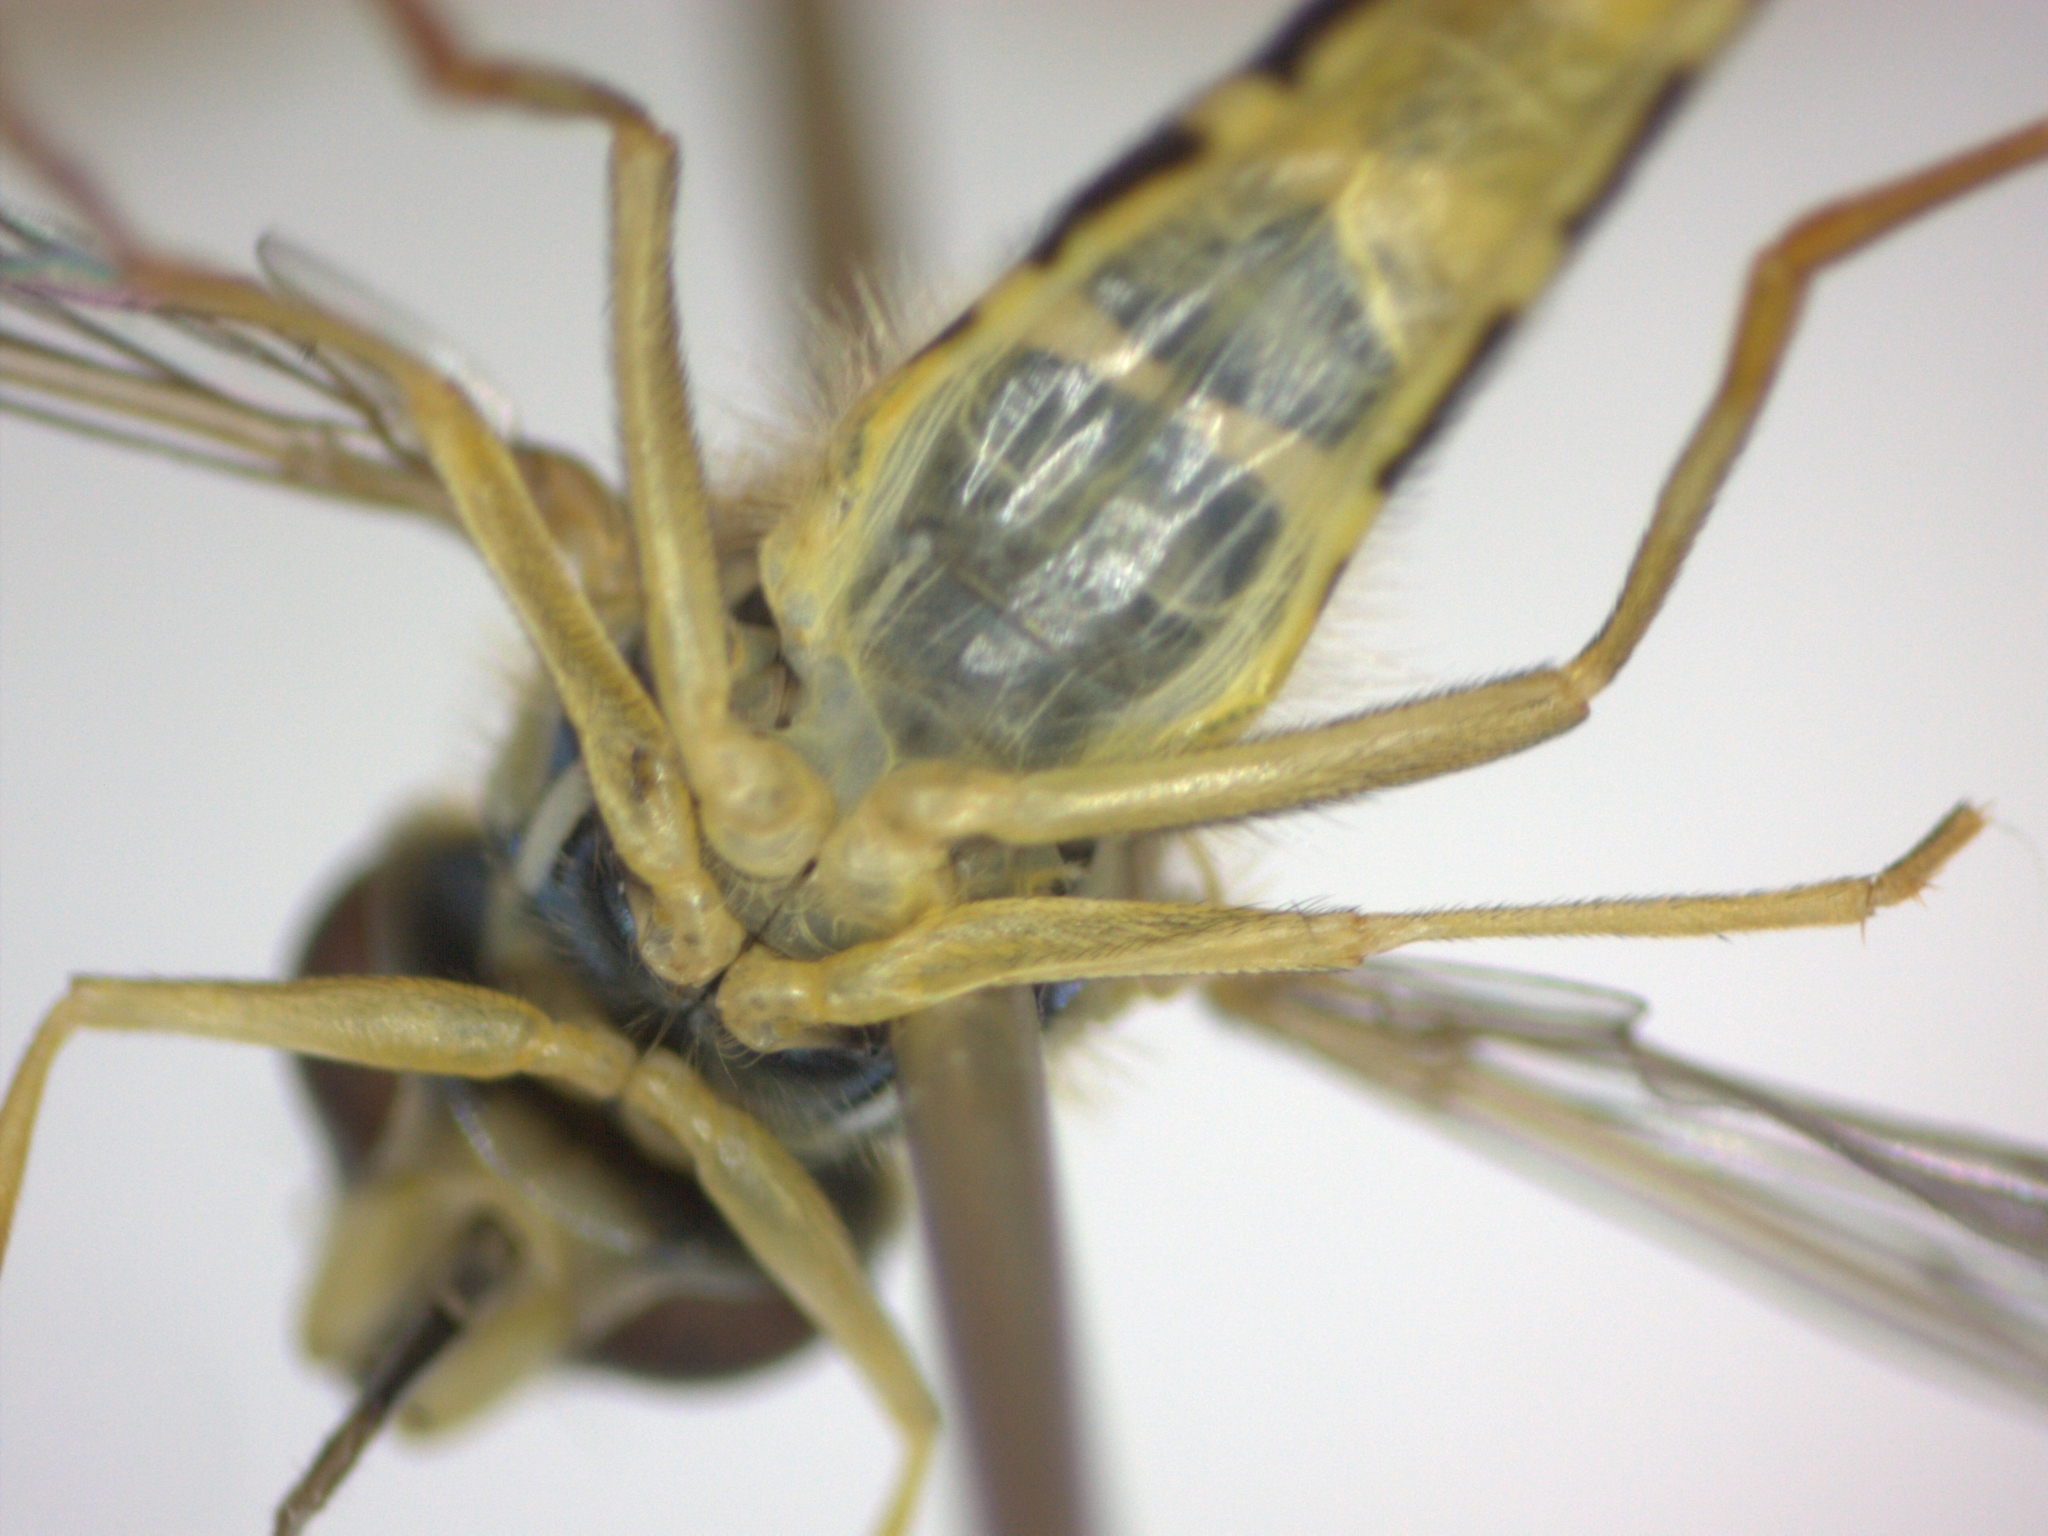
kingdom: Animalia
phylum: Arthropoda
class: Insecta
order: Diptera
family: Syrphidae
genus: Sphaerophoria
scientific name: Sphaerophoria scripta
